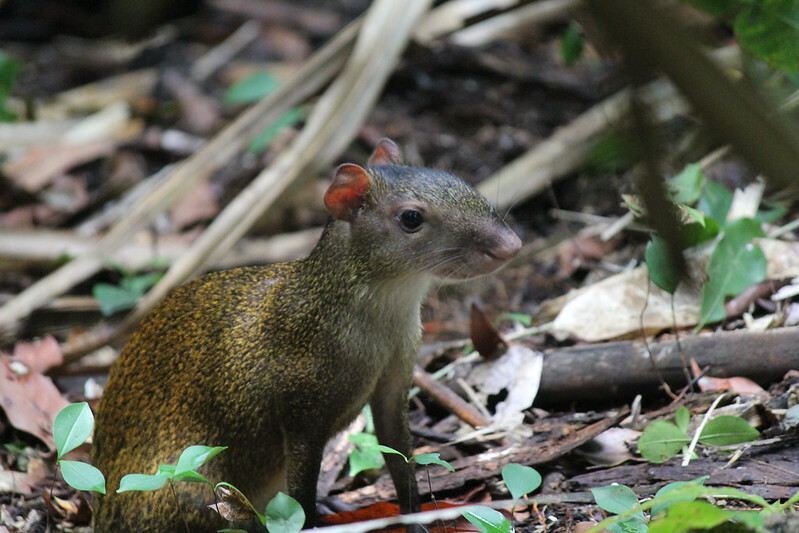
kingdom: Animalia
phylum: Chordata
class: Mammalia
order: Rodentia
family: Dasyproctidae
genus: Dasyprocta
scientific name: Dasyprocta punctata
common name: Central american agouti
